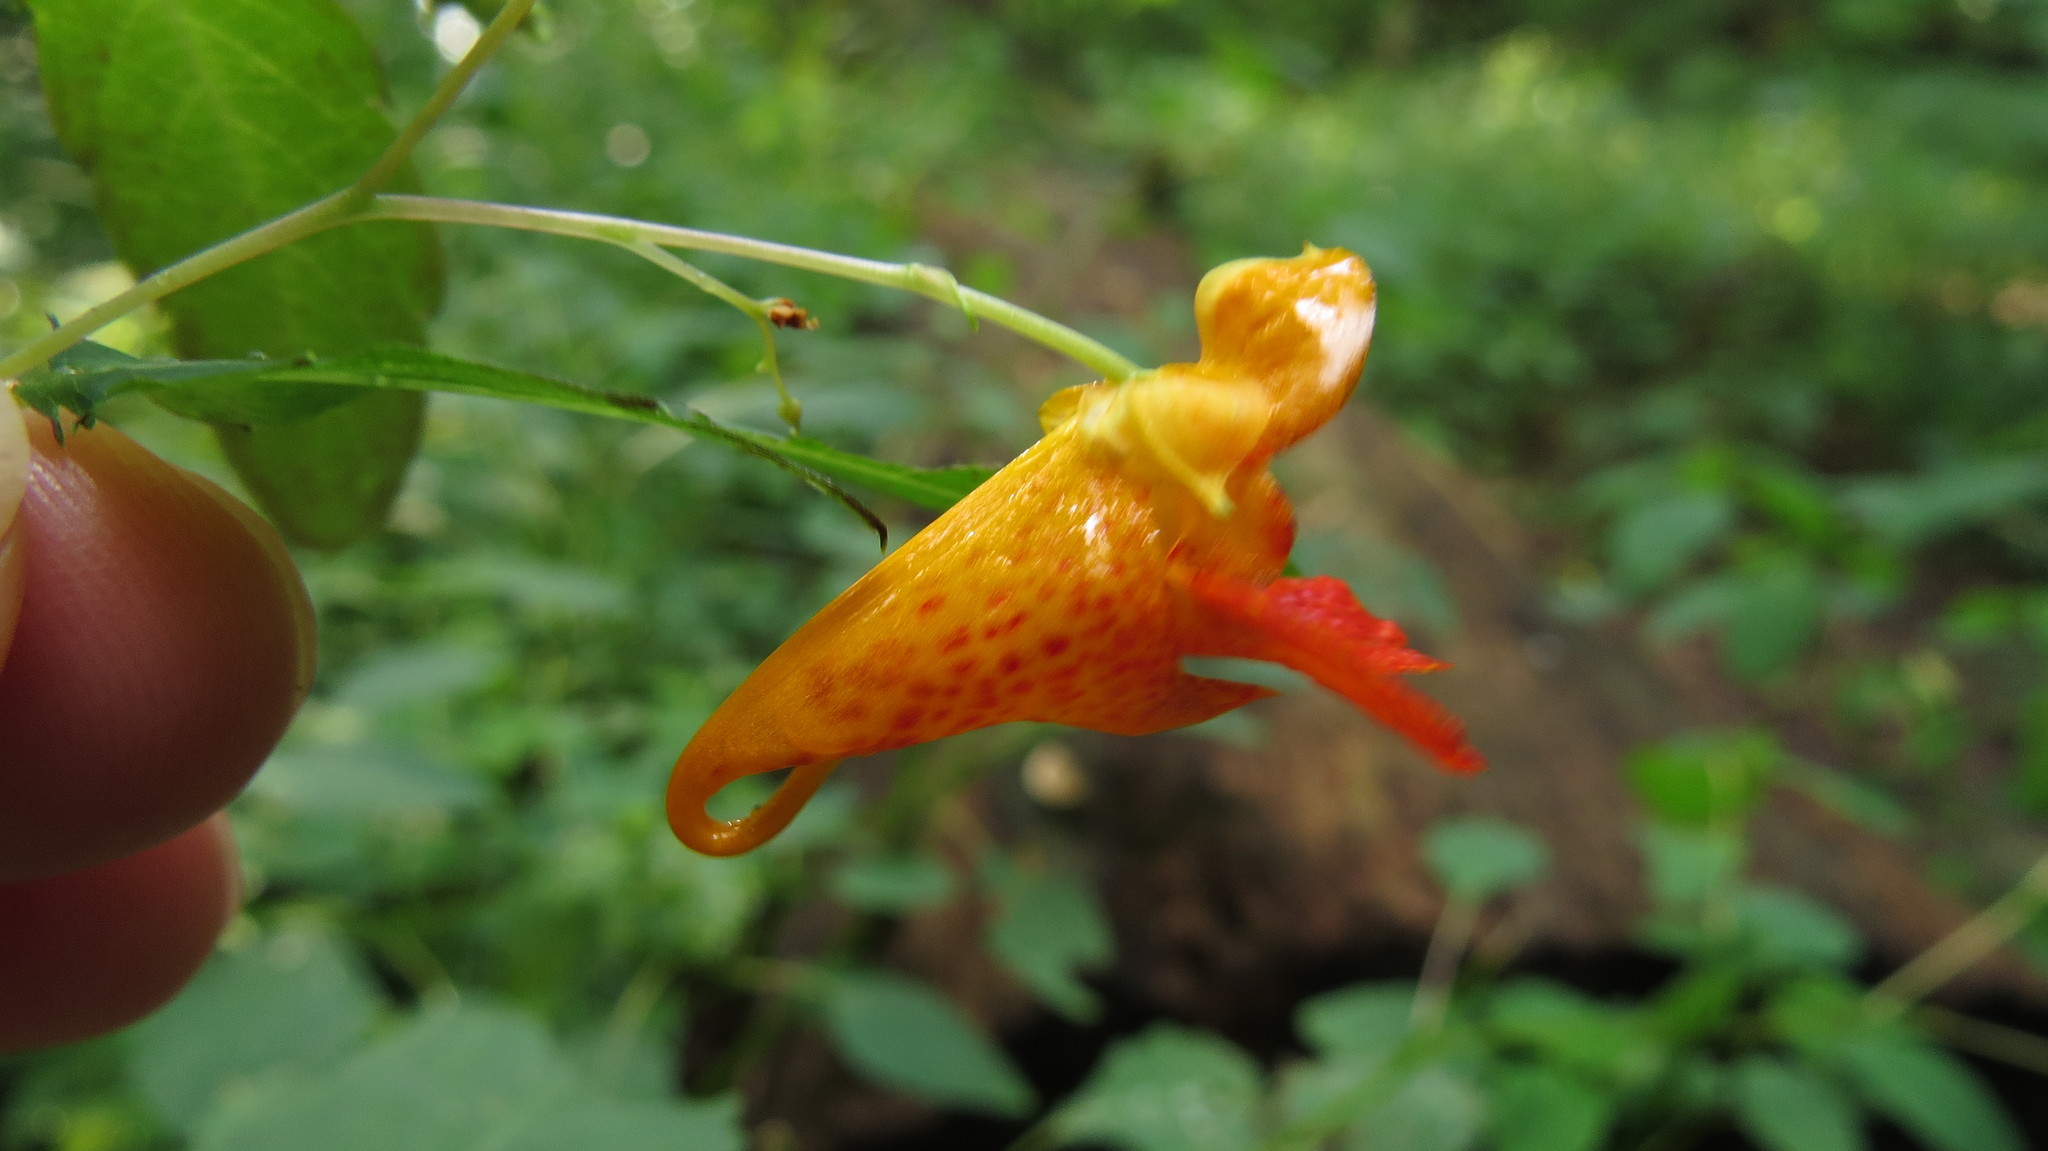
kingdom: Plantae
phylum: Tracheophyta
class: Magnoliopsida
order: Ericales
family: Balsaminaceae
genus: Impatiens
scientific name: Impatiens capensis
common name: Orange balsam
